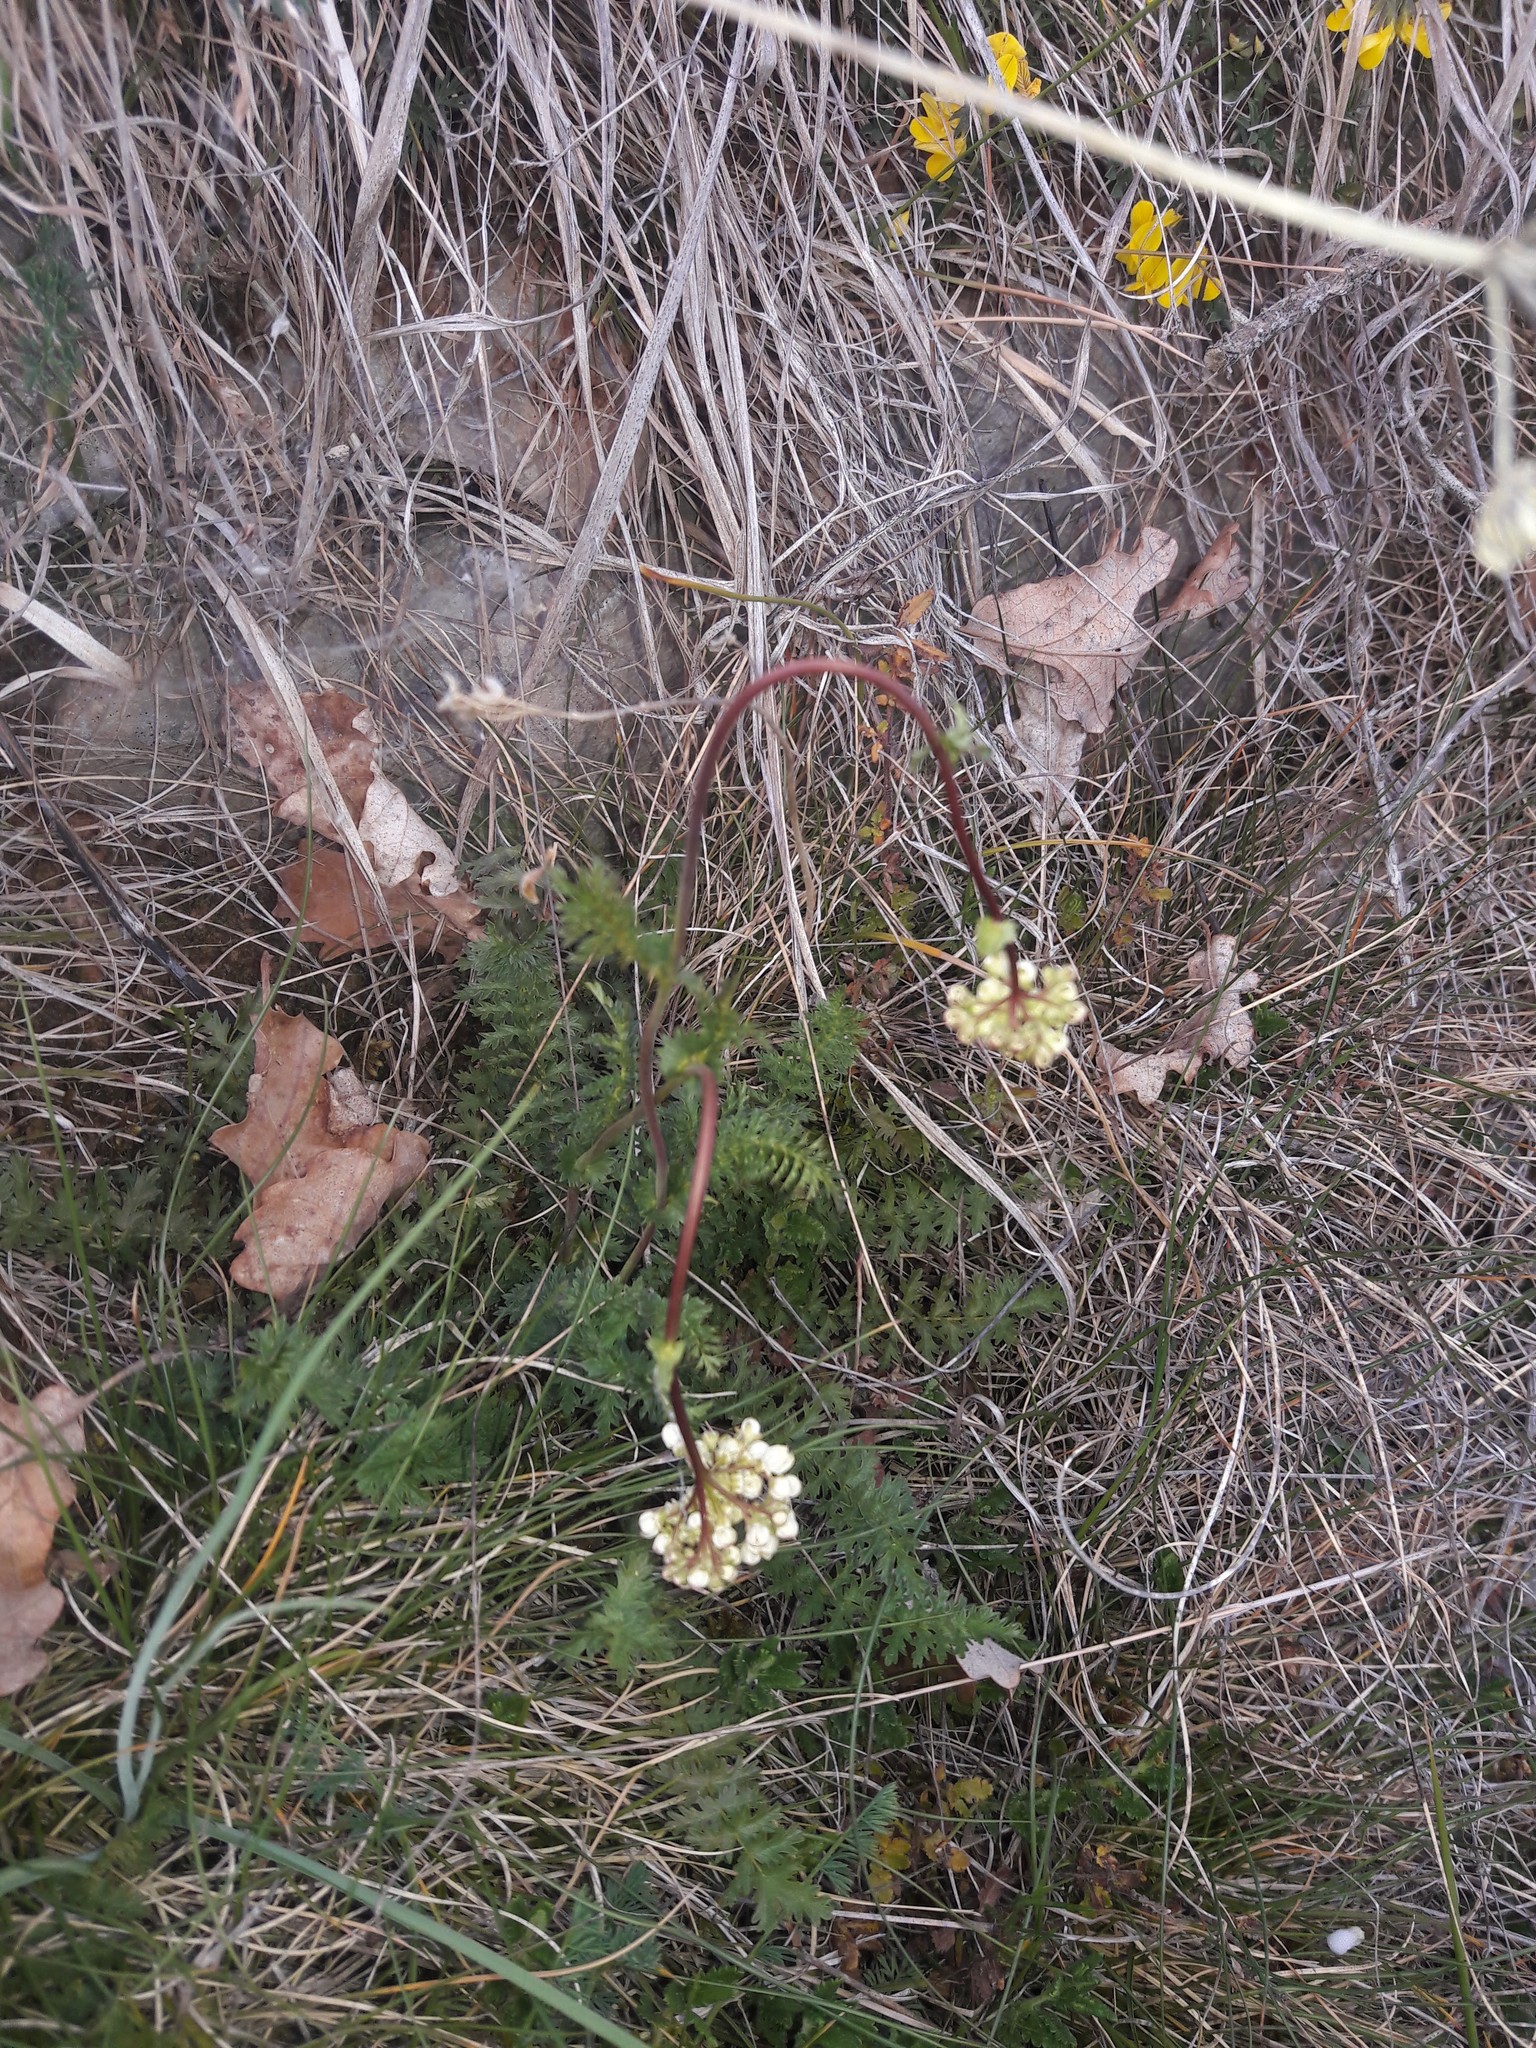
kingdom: Plantae
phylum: Tracheophyta
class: Magnoliopsida
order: Rosales
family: Rosaceae
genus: Filipendula
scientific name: Filipendula vulgaris
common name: Dropwort
